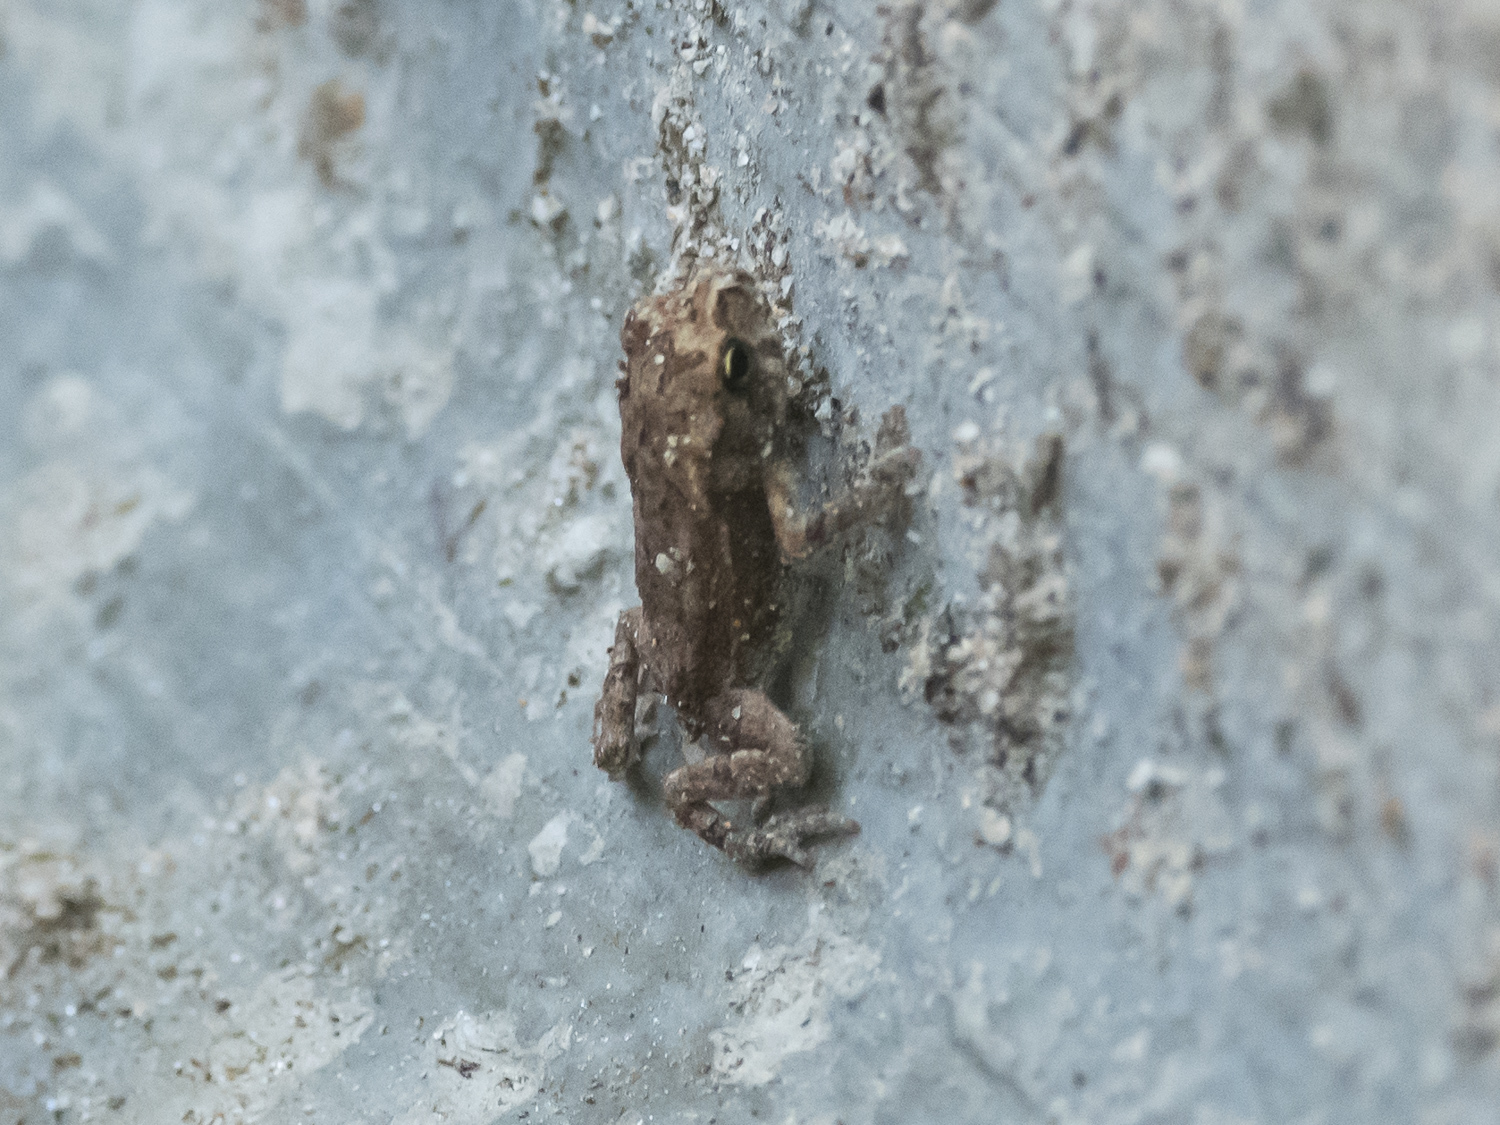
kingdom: Animalia
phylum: Chordata
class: Amphibia
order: Anura
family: Bufonidae
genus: Duttaphrynus
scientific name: Duttaphrynus melanostictus
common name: Common sunda toad
